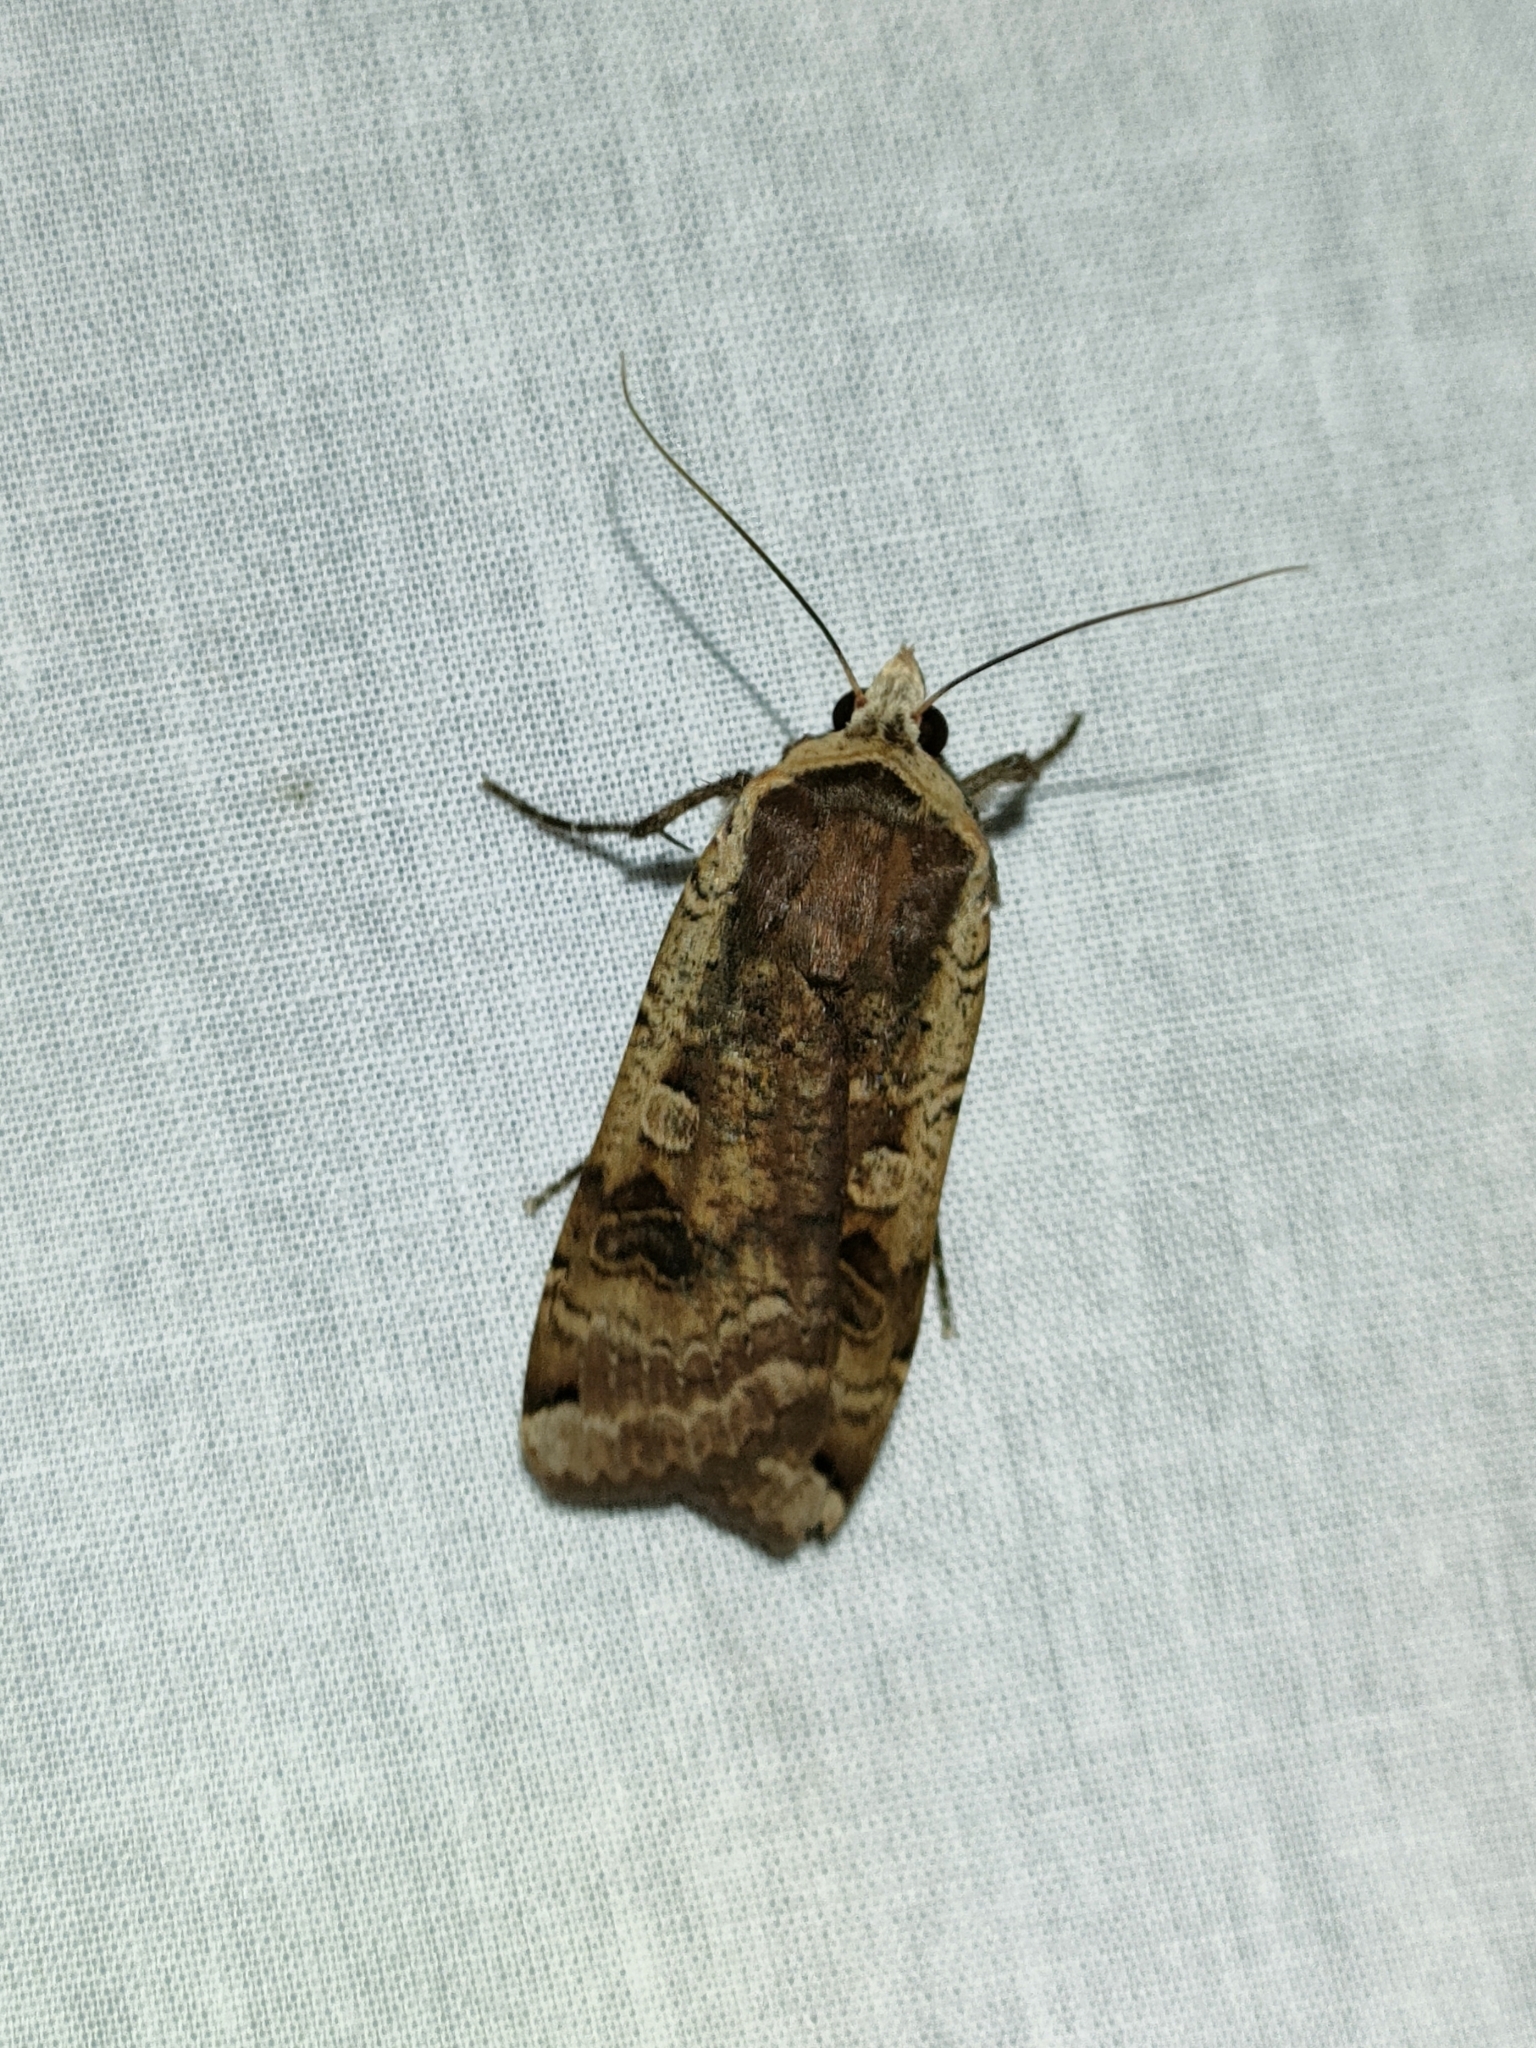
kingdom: Animalia
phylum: Arthropoda
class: Insecta
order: Lepidoptera
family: Noctuidae
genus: Noctua
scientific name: Noctua pronuba
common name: Large yellow underwing
